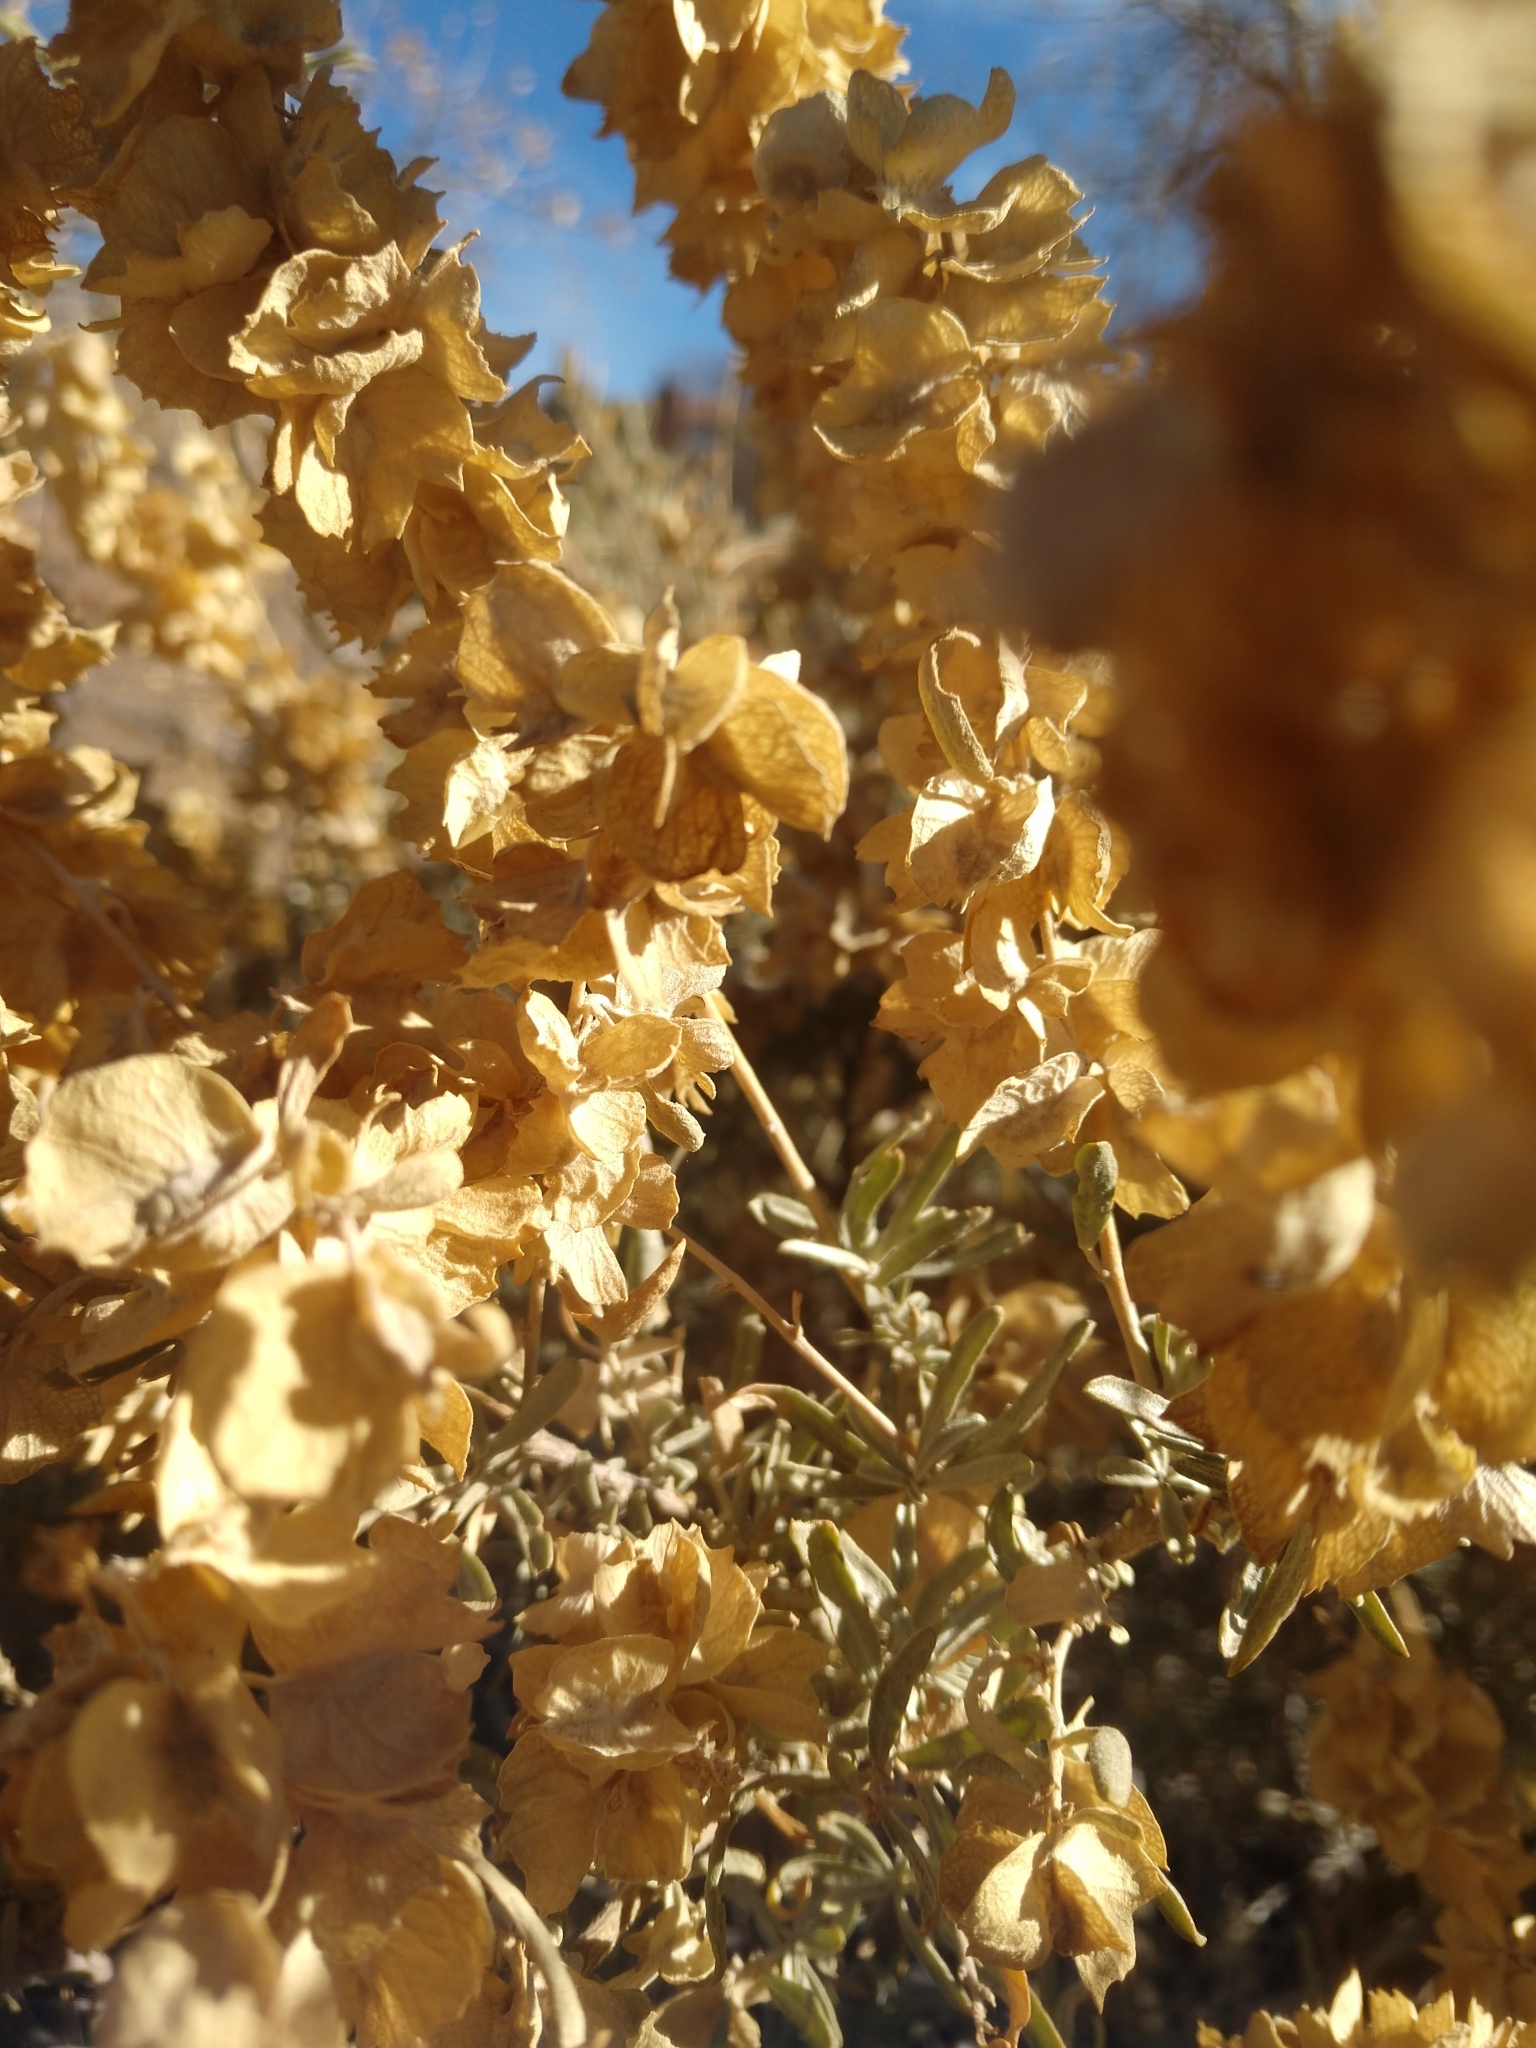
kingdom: Plantae
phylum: Tracheophyta
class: Magnoliopsida
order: Caryophyllales
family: Amaranthaceae
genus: Atriplex
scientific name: Atriplex canescens
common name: Four-wing saltbush
